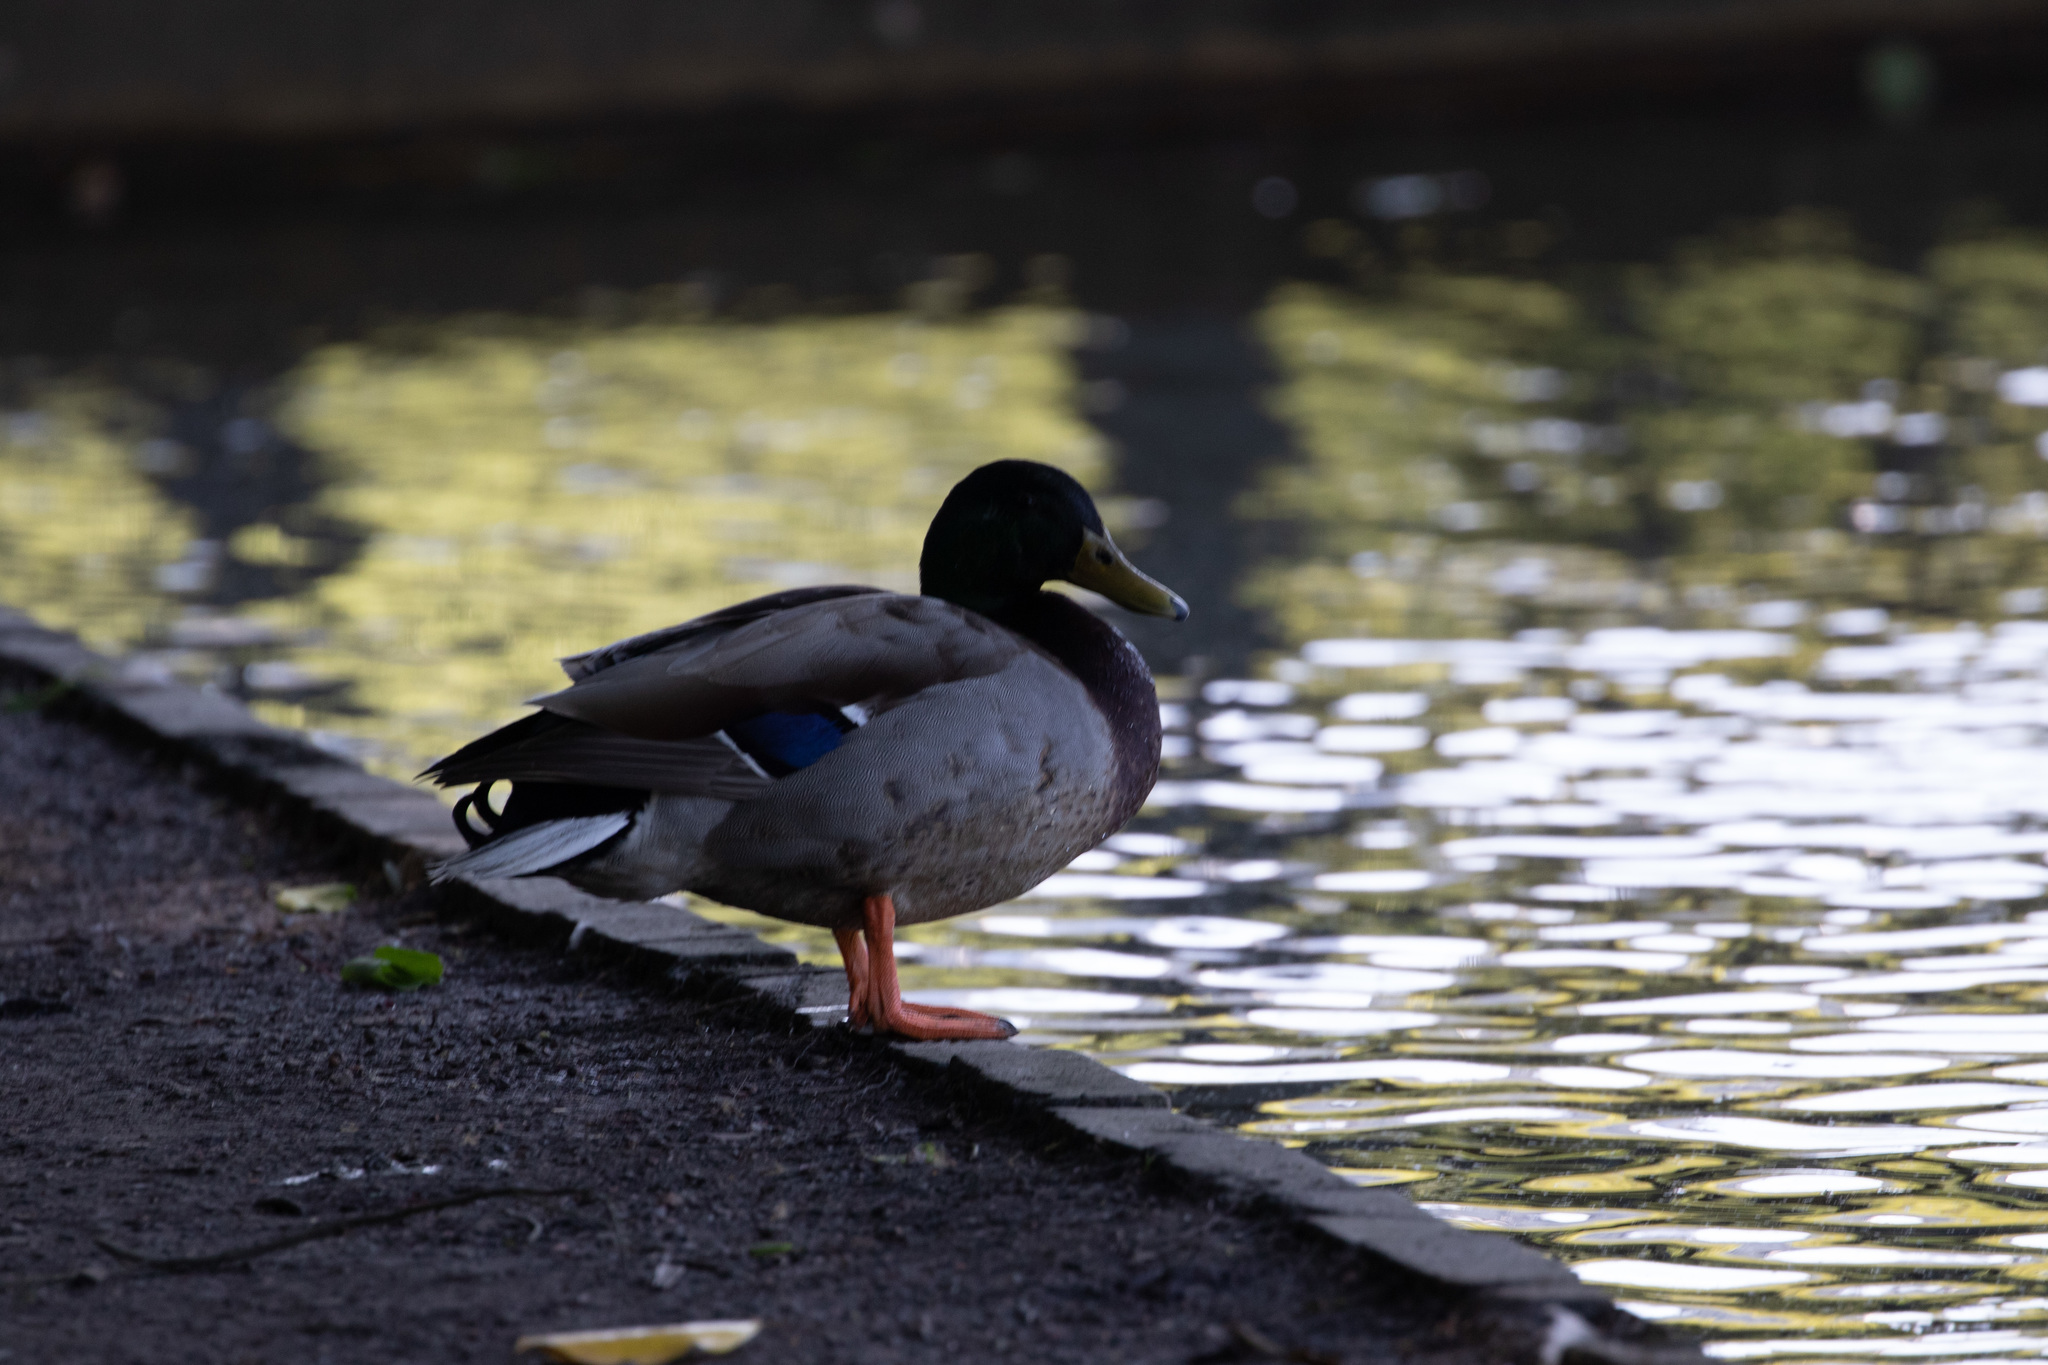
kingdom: Animalia
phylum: Chordata
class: Aves
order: Anseriformes
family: Anatidae
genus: Anas
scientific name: Anas platyrhynchos
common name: Mallard
